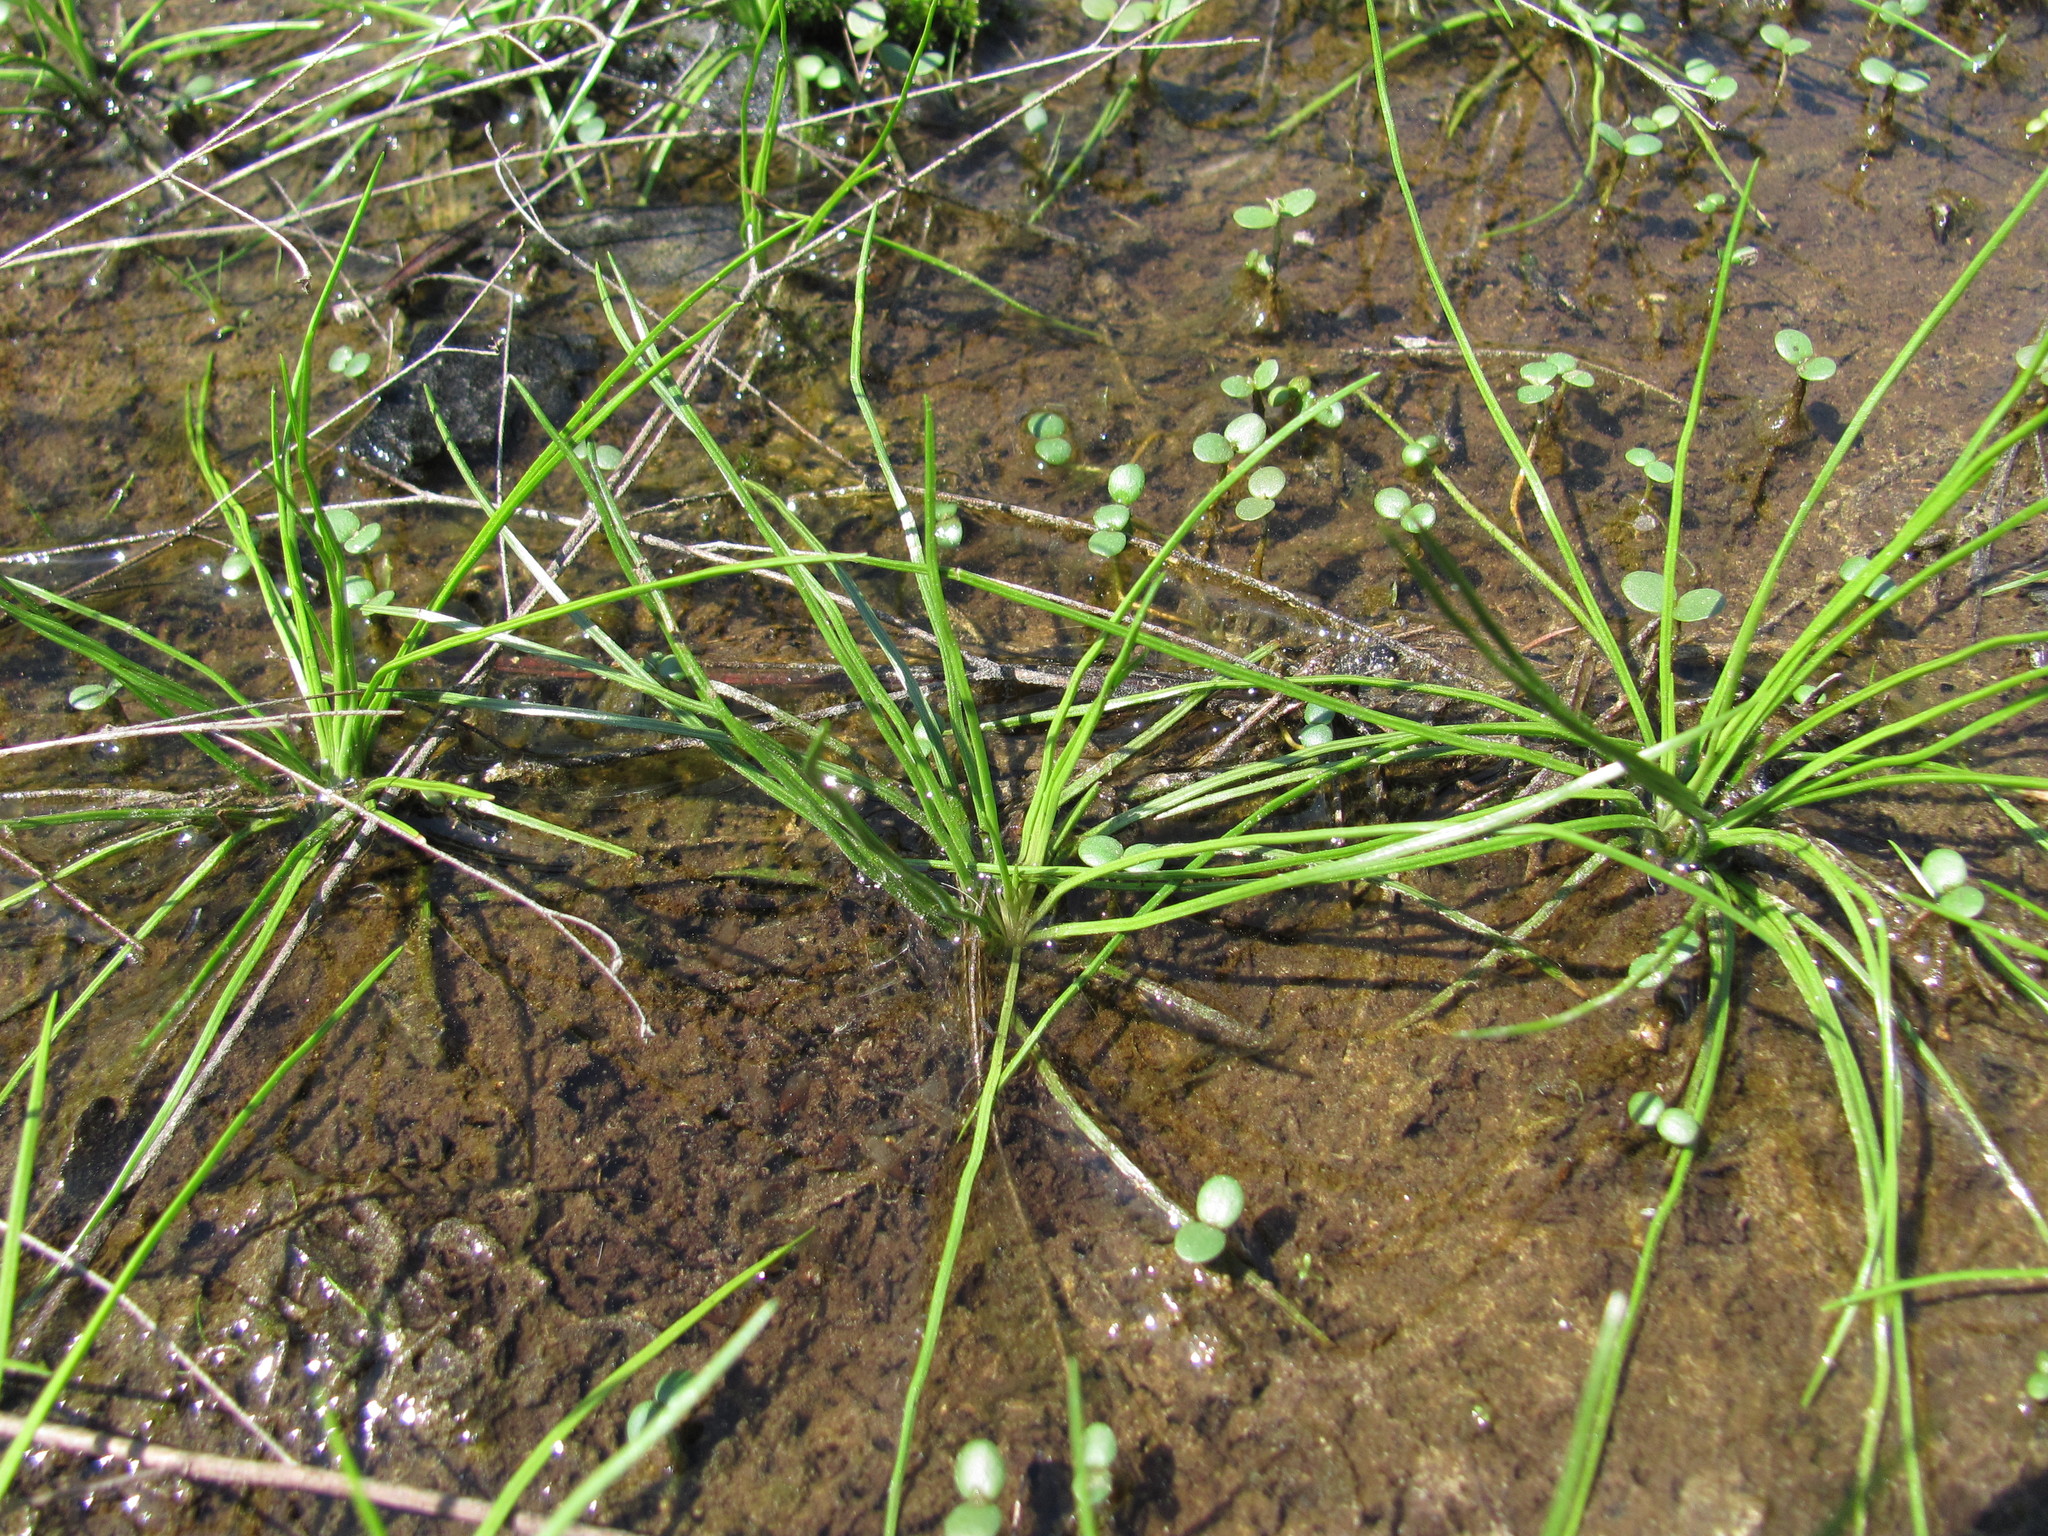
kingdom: Plantae
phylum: Tracheophyta
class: Lycopodiopsida
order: Isoetales
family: Isoetaceae
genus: Isoetes
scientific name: Isoetes virginica
